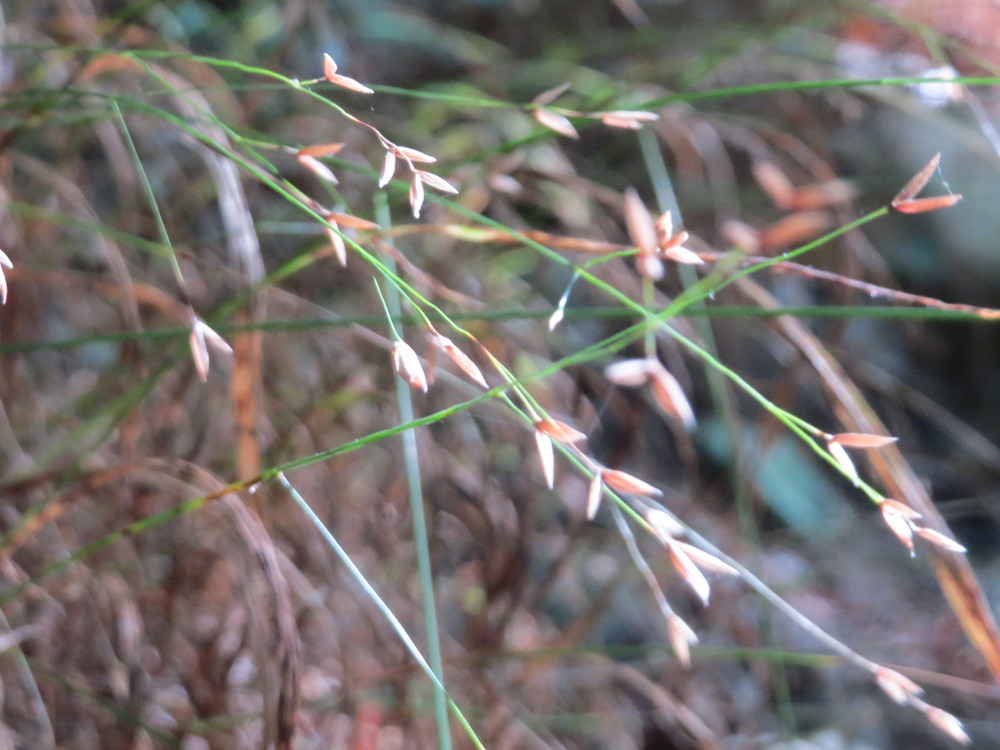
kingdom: Plantae
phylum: Tracheophyta
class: Liliopsida
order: Poales
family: Poaceae
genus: Melica
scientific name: Melica uniflora
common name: Wood melick
